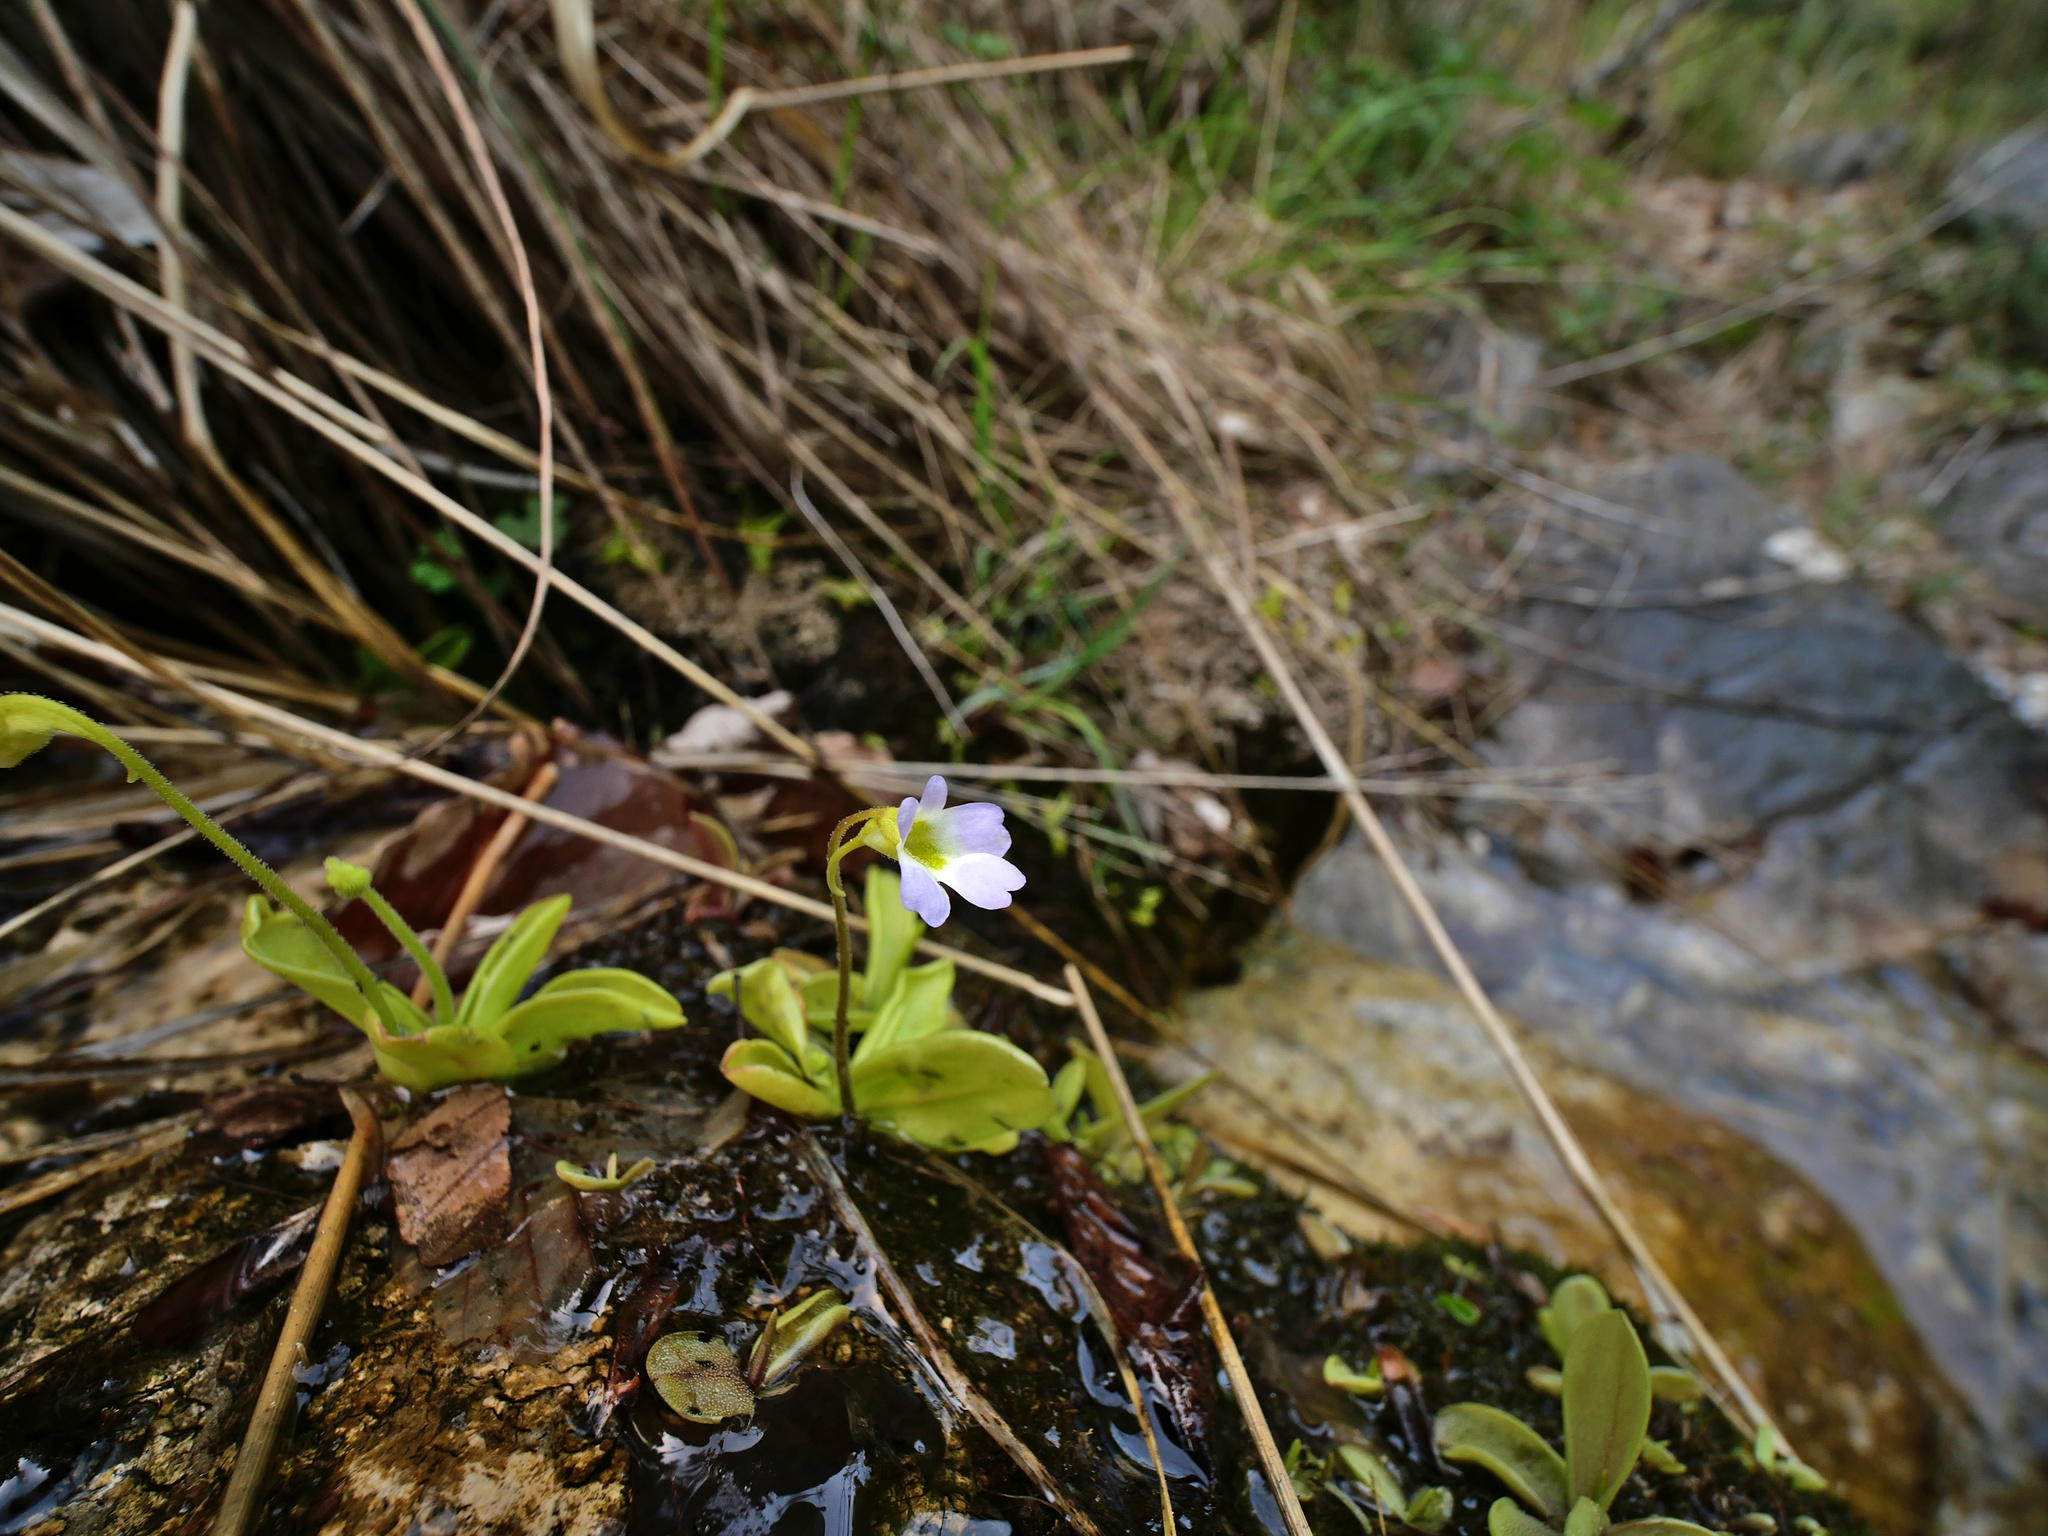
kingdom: Plantae
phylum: Tracheophyta
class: Magnoliopsida
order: Lamiales
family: Lentibulariaceae
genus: Pinguicula
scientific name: Pinguicula crystallina
